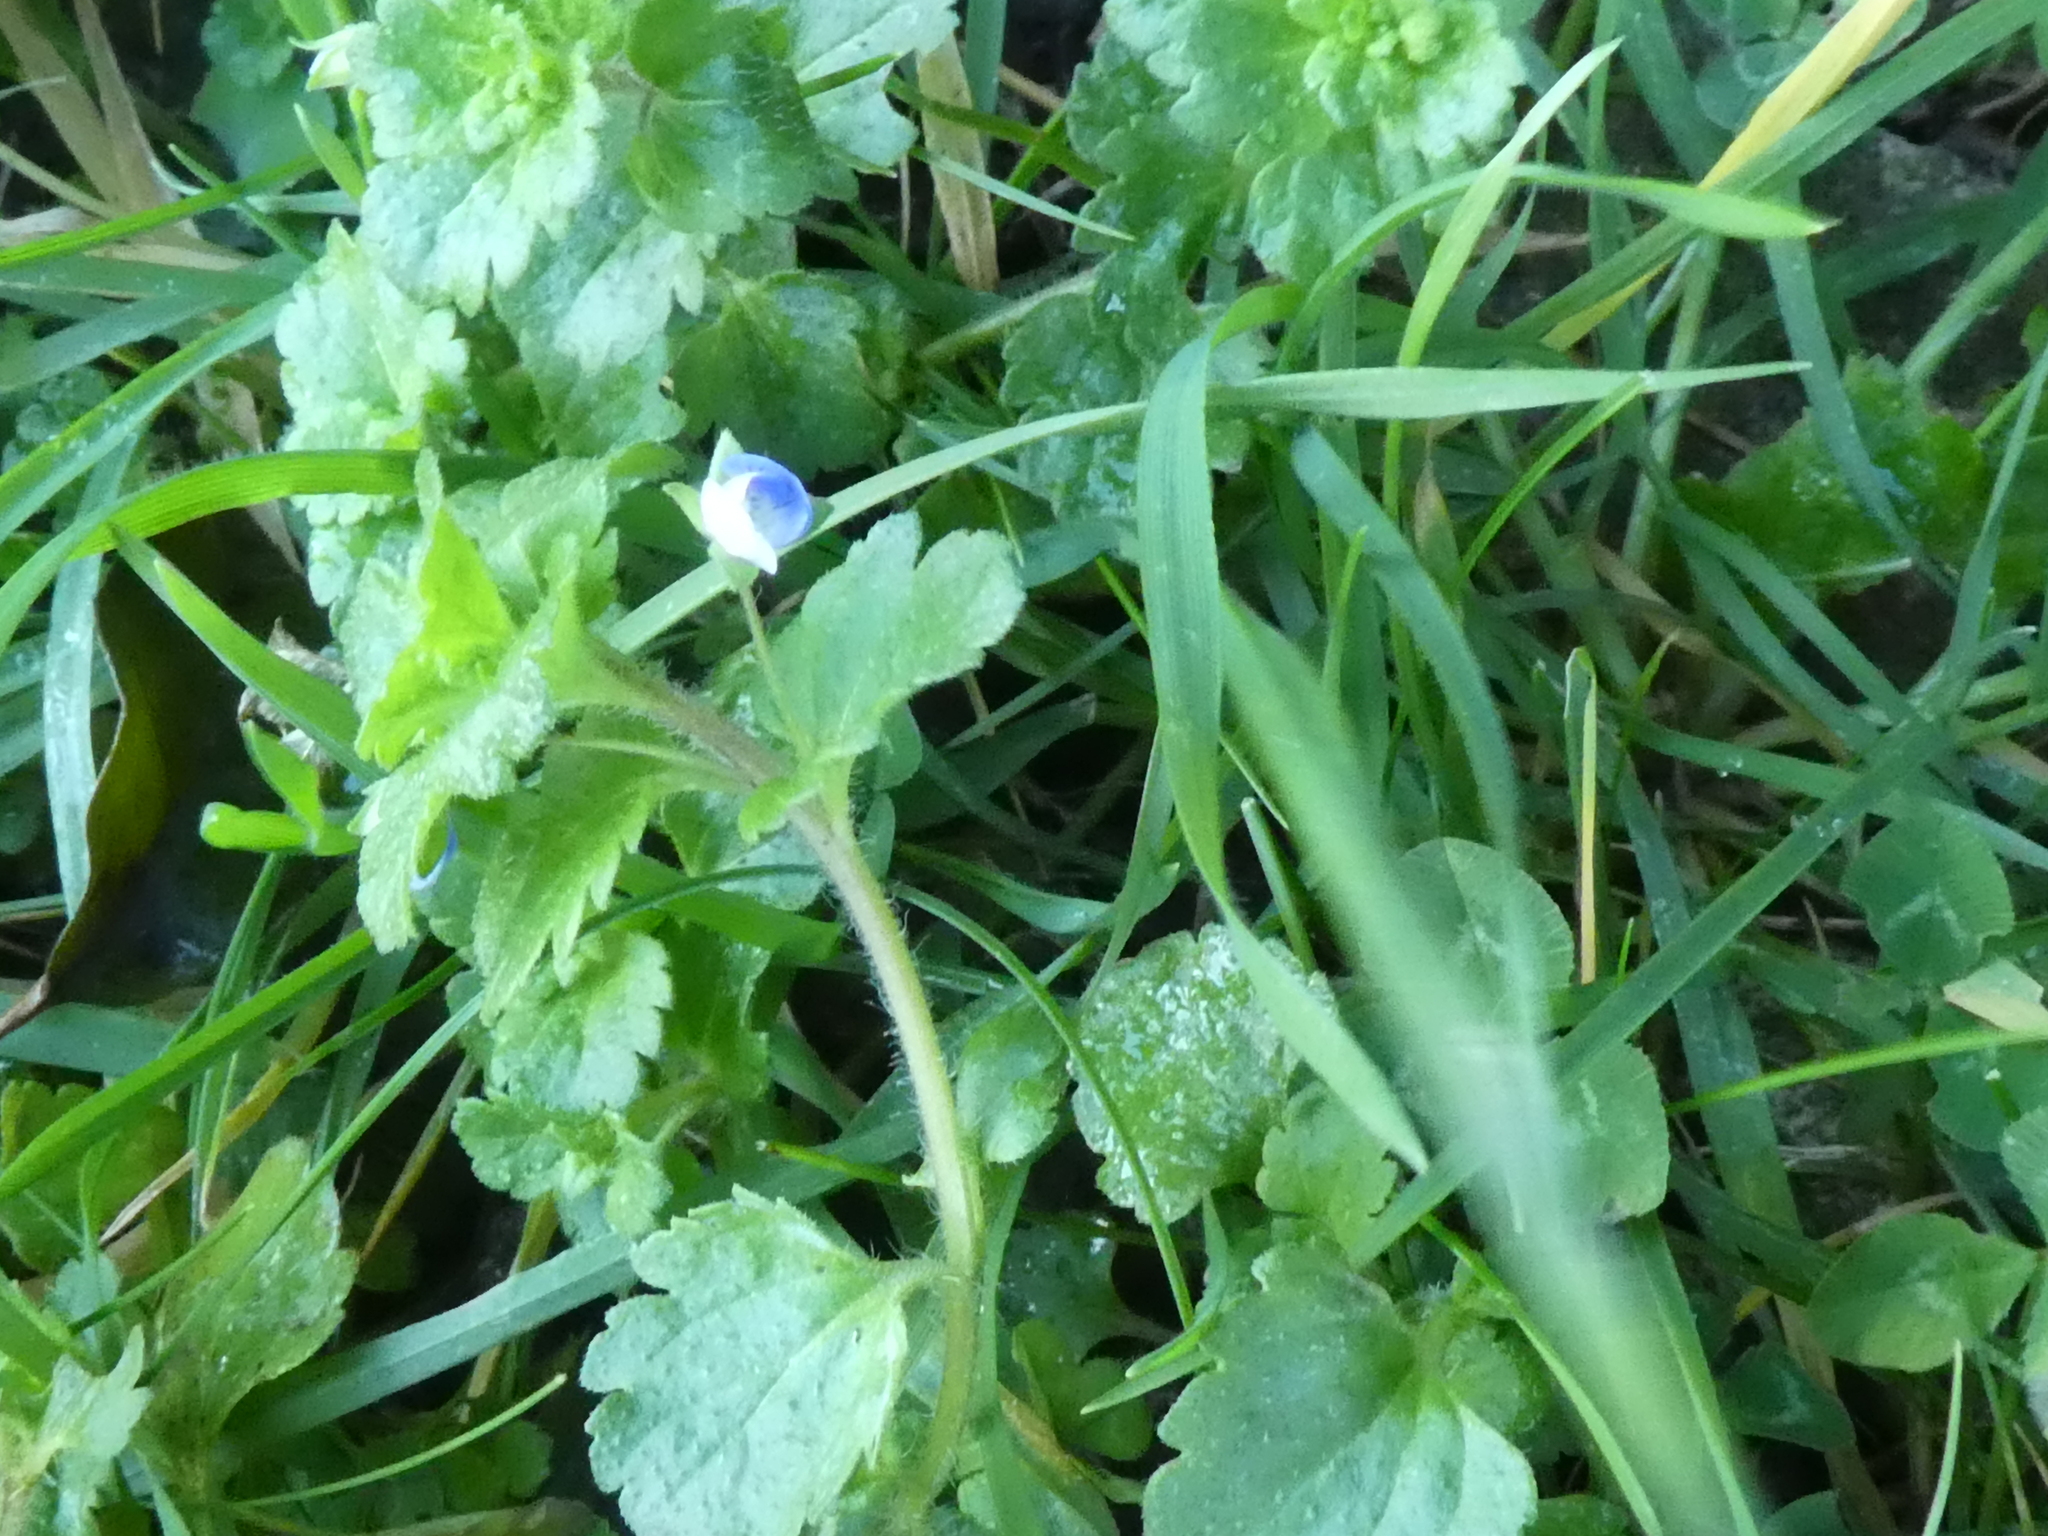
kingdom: Plantae
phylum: Tracheophyta
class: Magnoliopsida
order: Lamiales
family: Plantaginaceae
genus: Veronica
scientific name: Veronica persica
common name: Common field-speedwell
